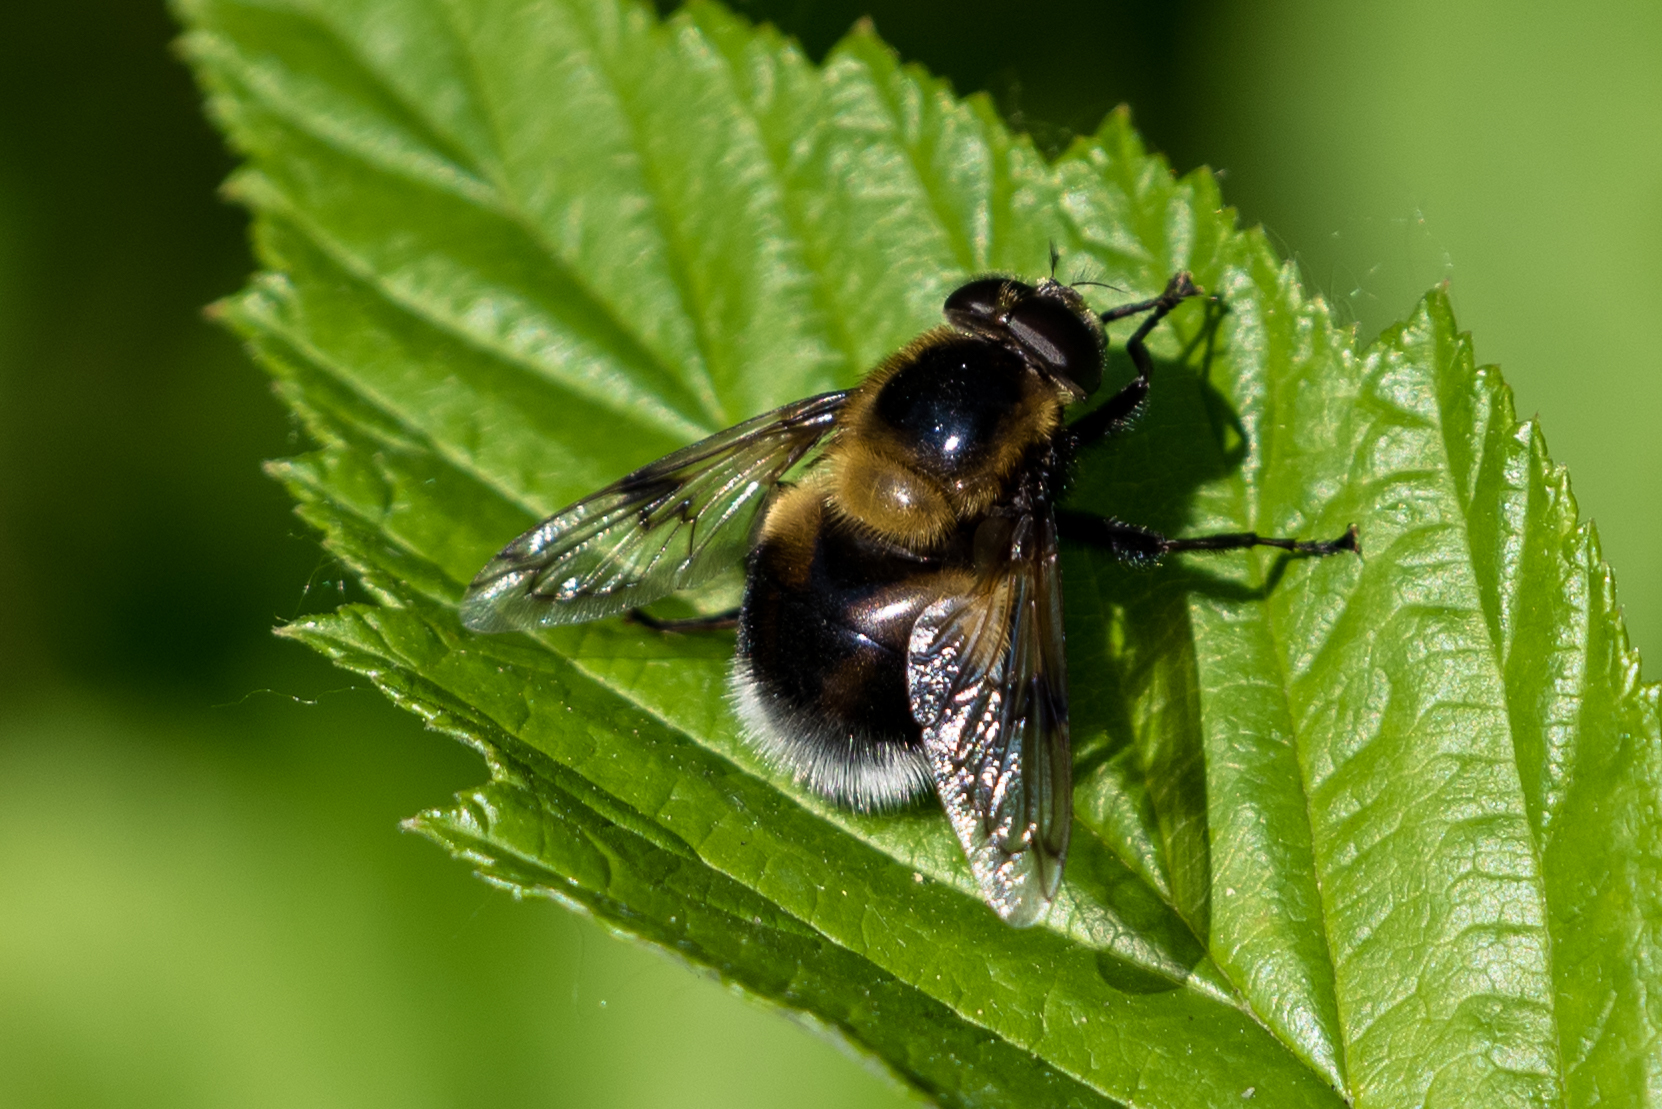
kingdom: Animalia
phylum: Arthropoda
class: Insecta
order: Diptera
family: Syrphidae
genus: Volucella
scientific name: Volucella bombylans
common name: Bumble bee hover fly
